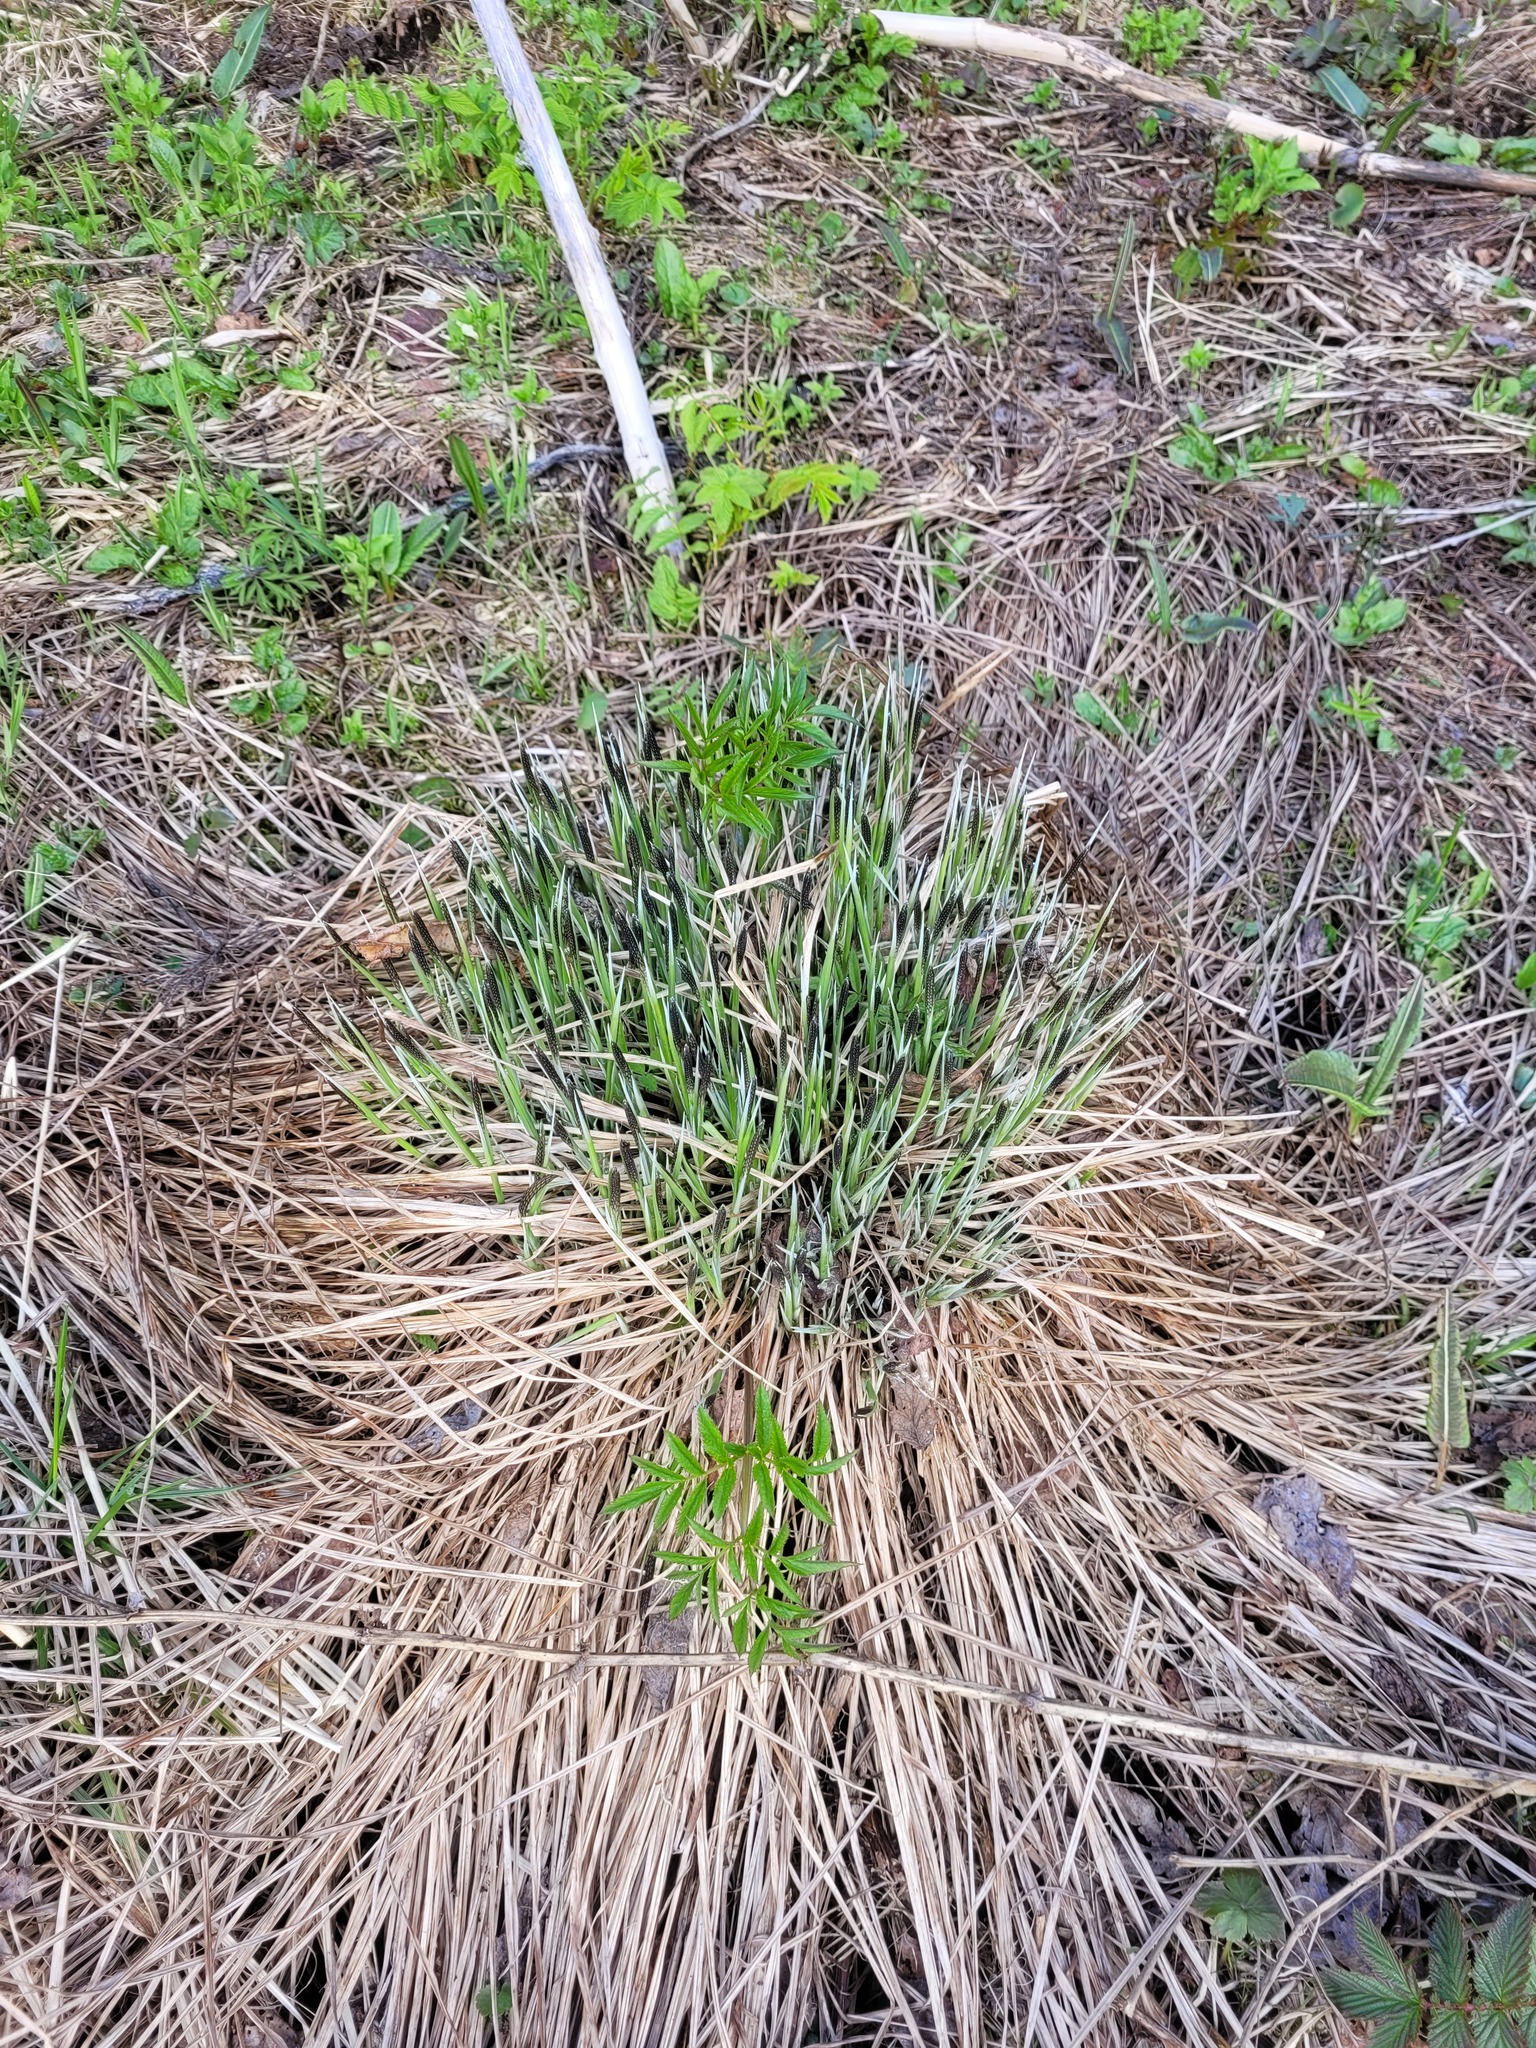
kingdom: Plantae
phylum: Tracheophyta
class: Liliopsida
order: Poales
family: Cyperaceae
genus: Carex
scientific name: Carex cespitosa
